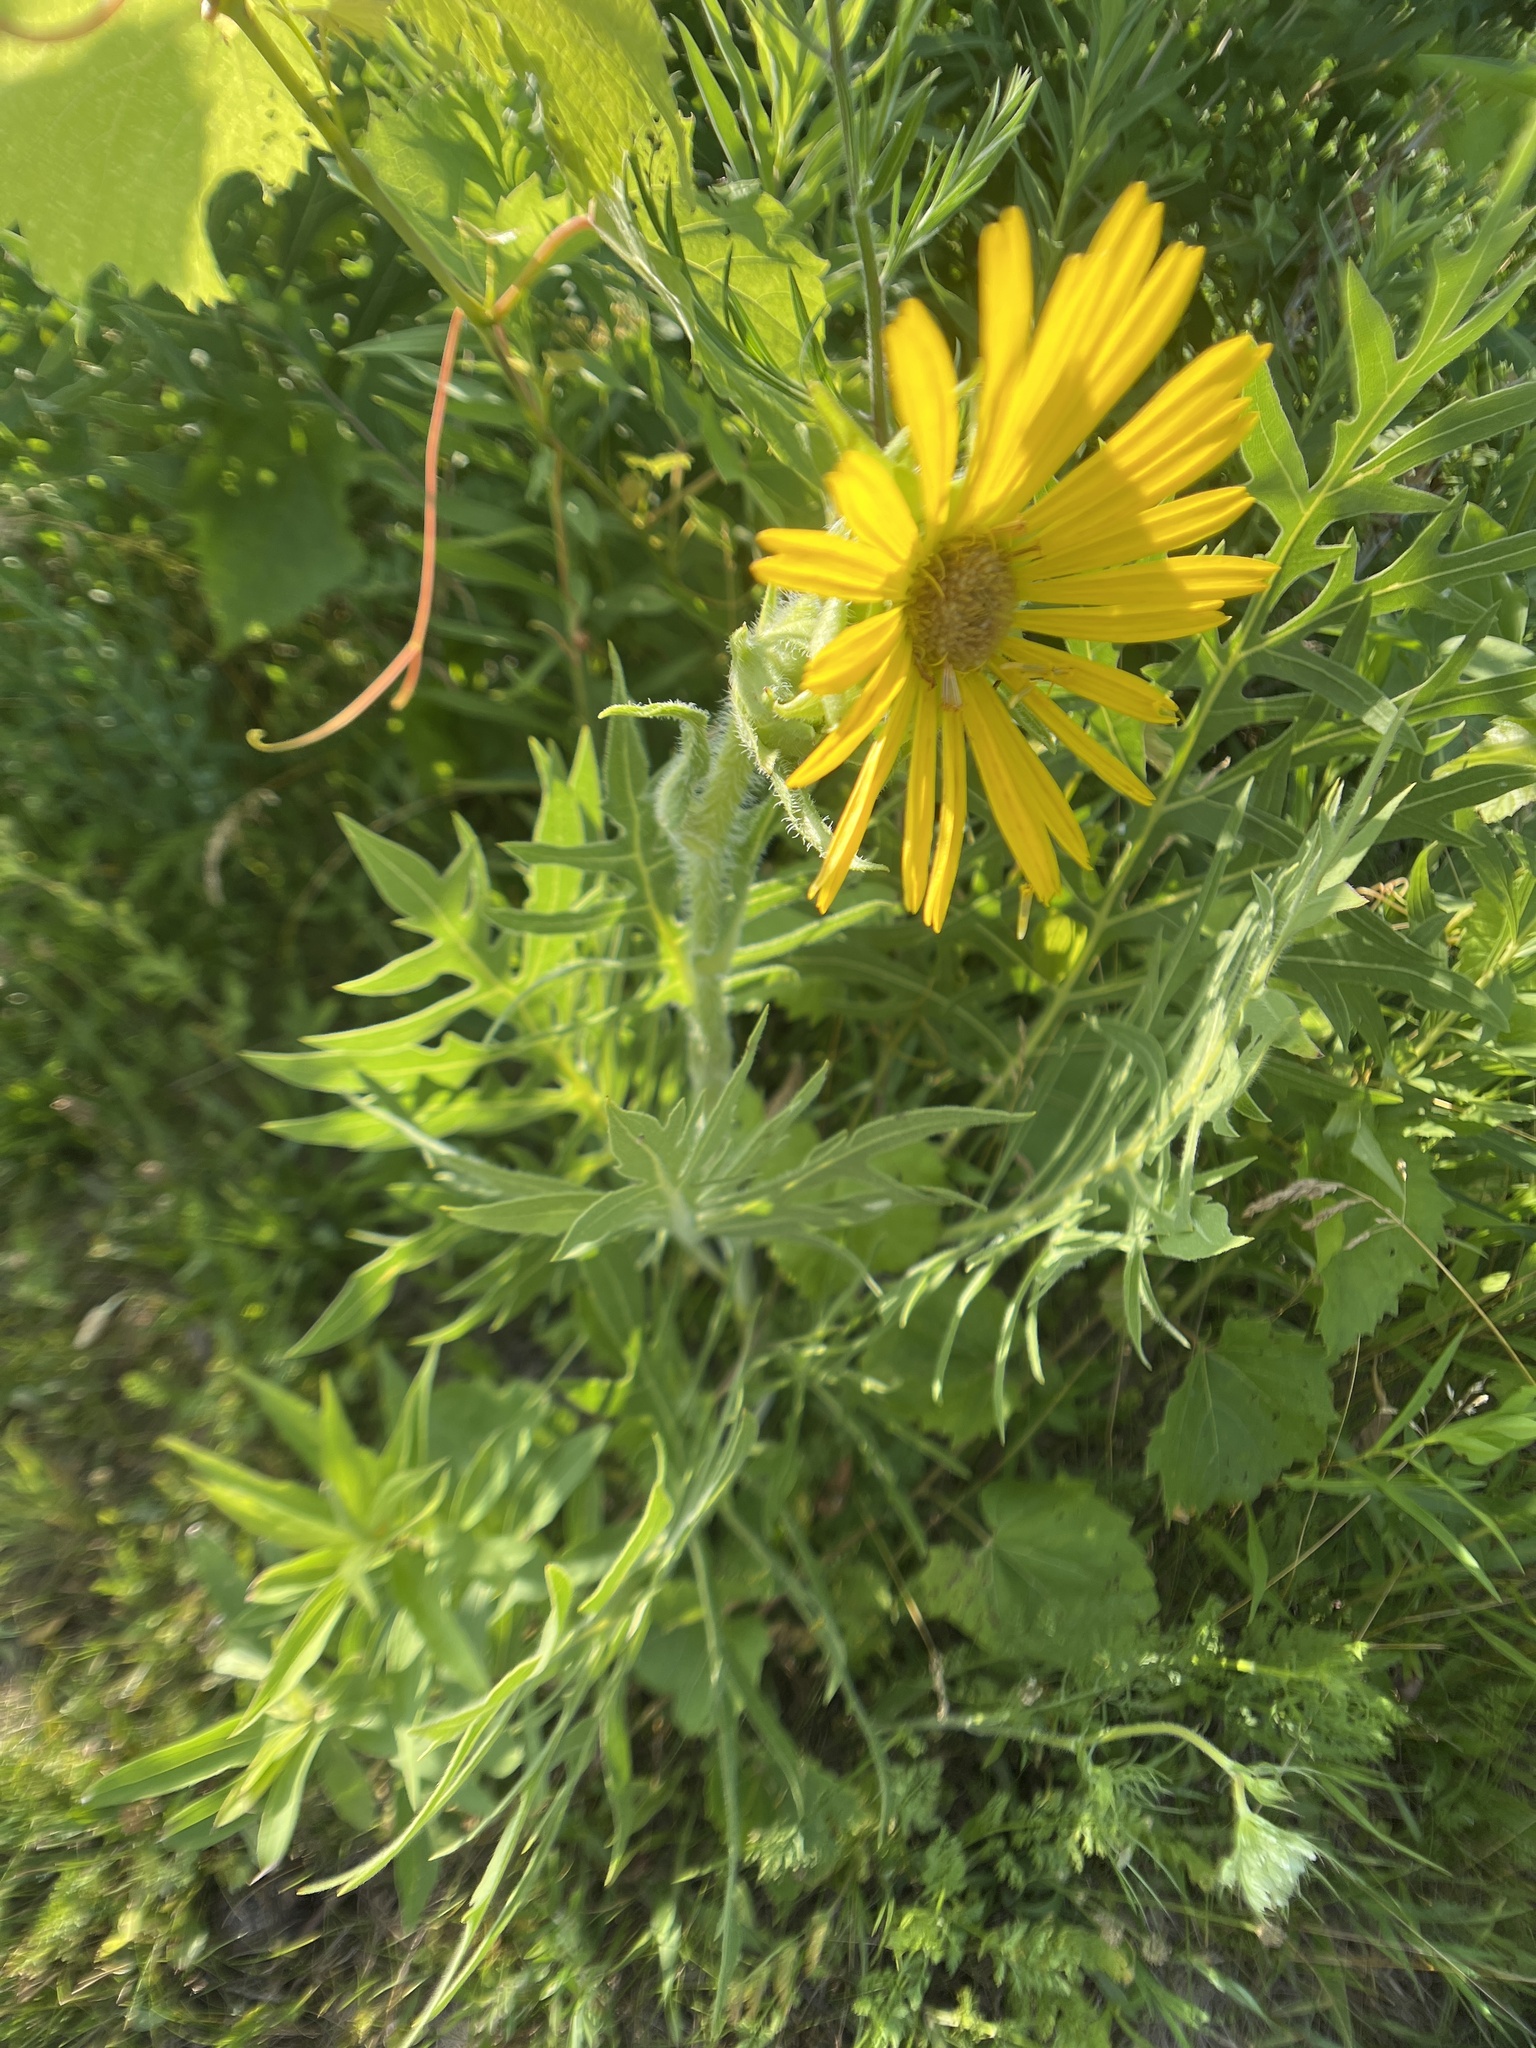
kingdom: Plantae
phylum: Tracheophyta
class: Magnoliopsida
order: Asterales
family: Asteraceae
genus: Silphium
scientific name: Silphium laciniatum
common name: Polarplant
